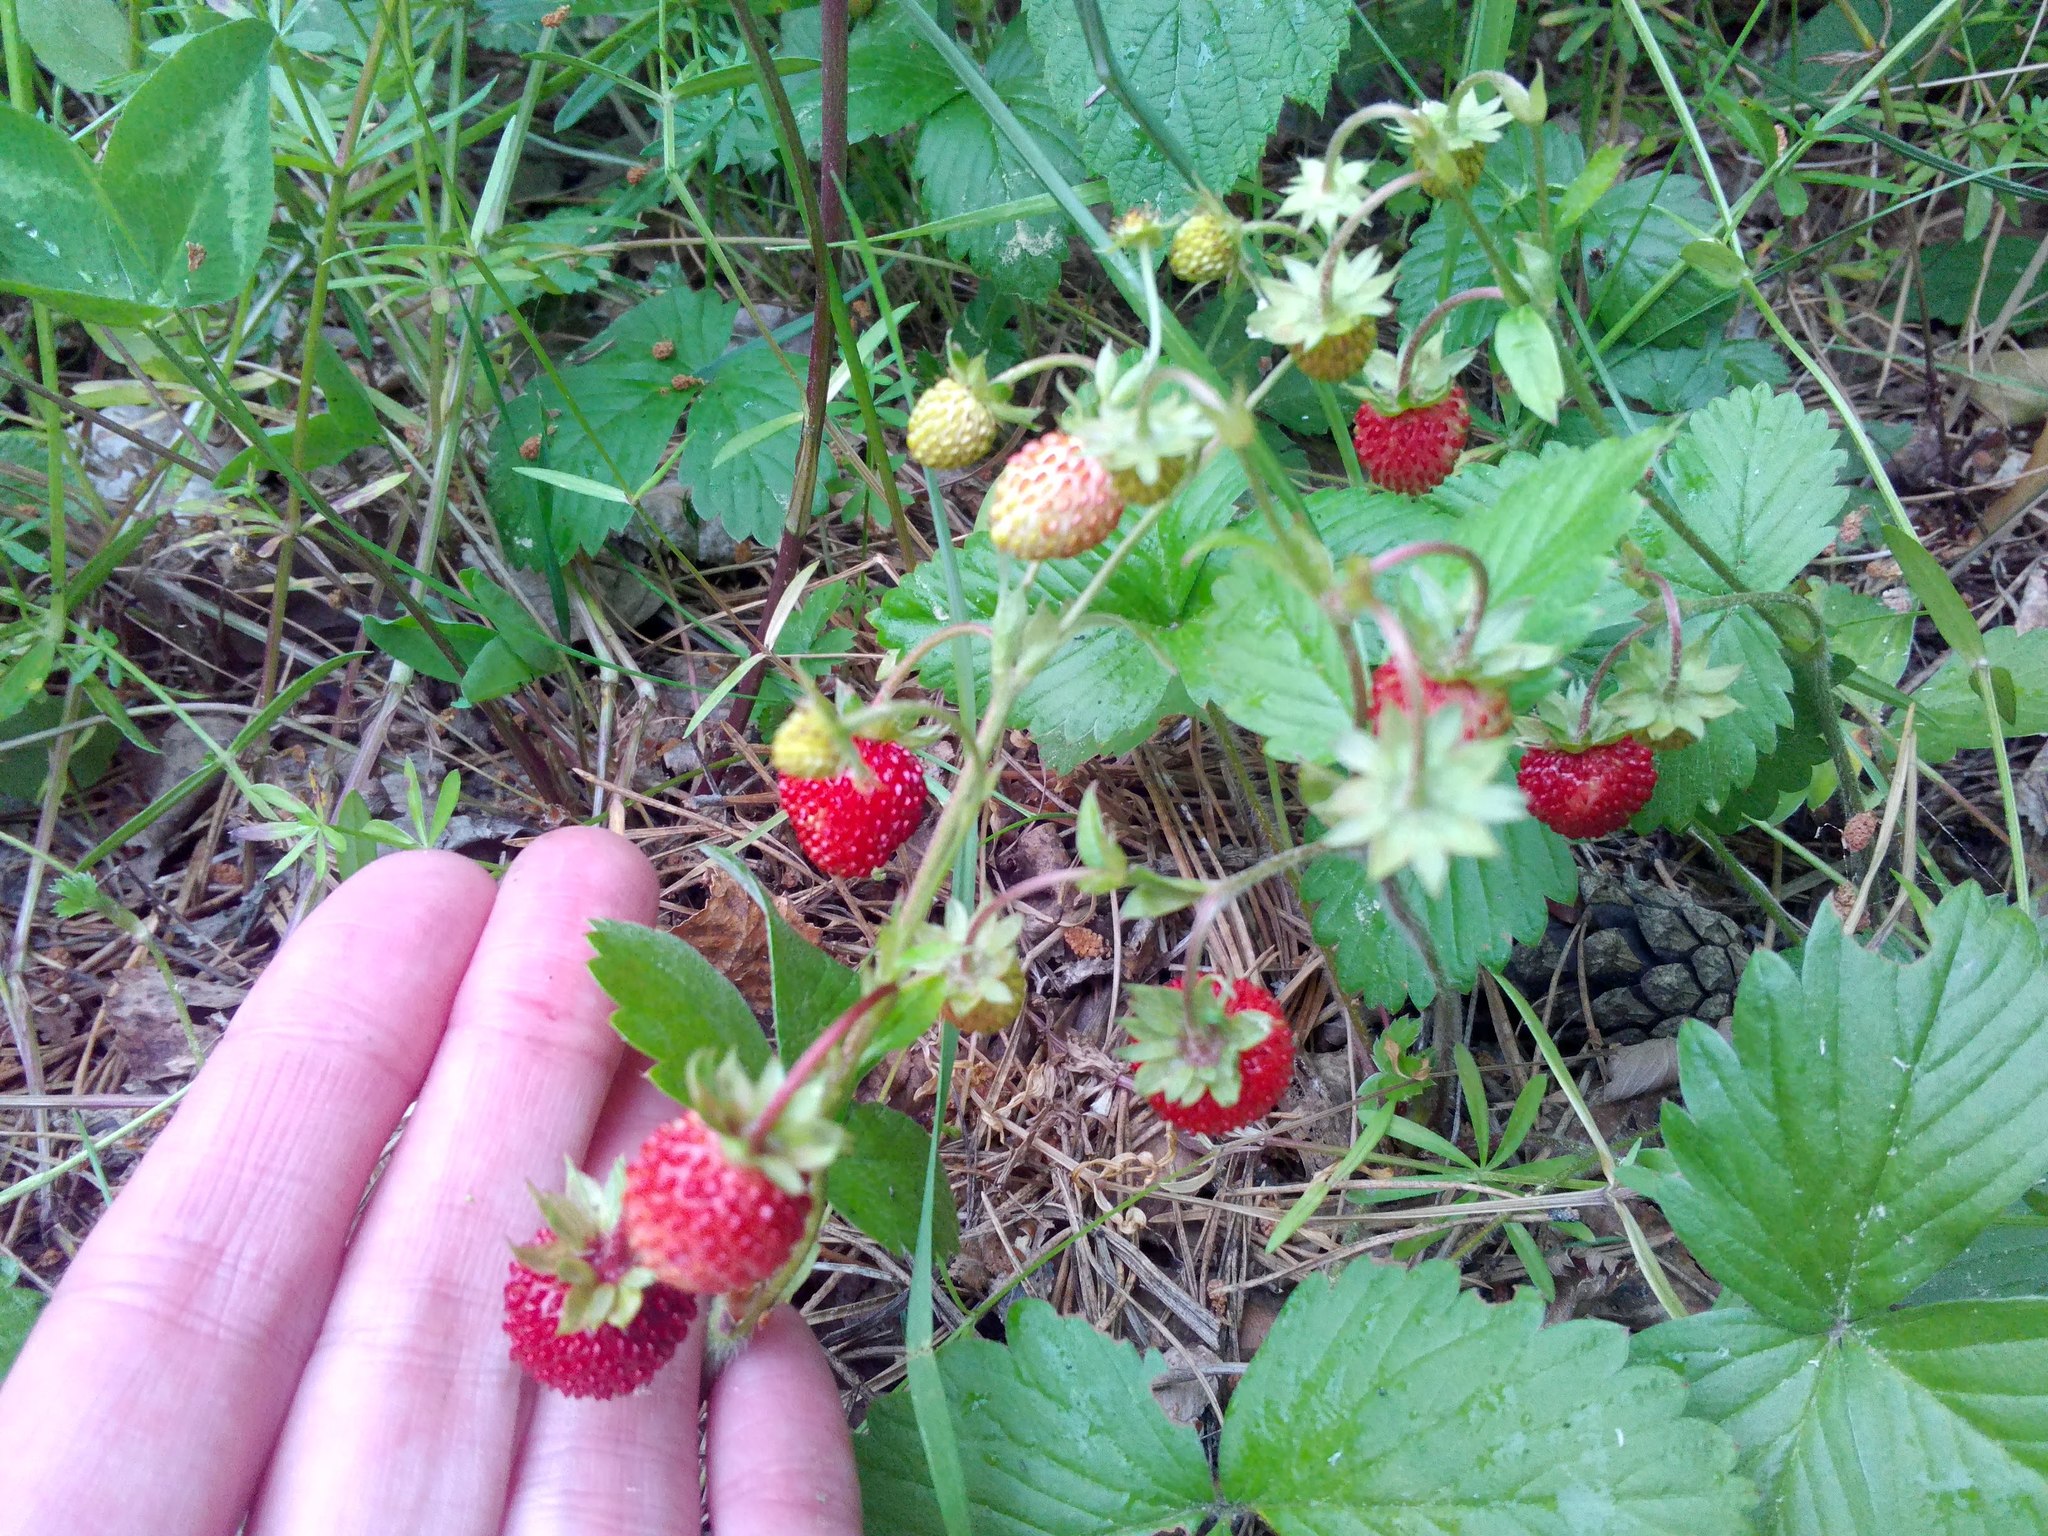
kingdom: Plantae
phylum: Tracheophyta
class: Magnoliopsida
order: Rosales
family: Rosaceae
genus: Fragaria
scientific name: Fragaria vesca
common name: Wild strawberry
